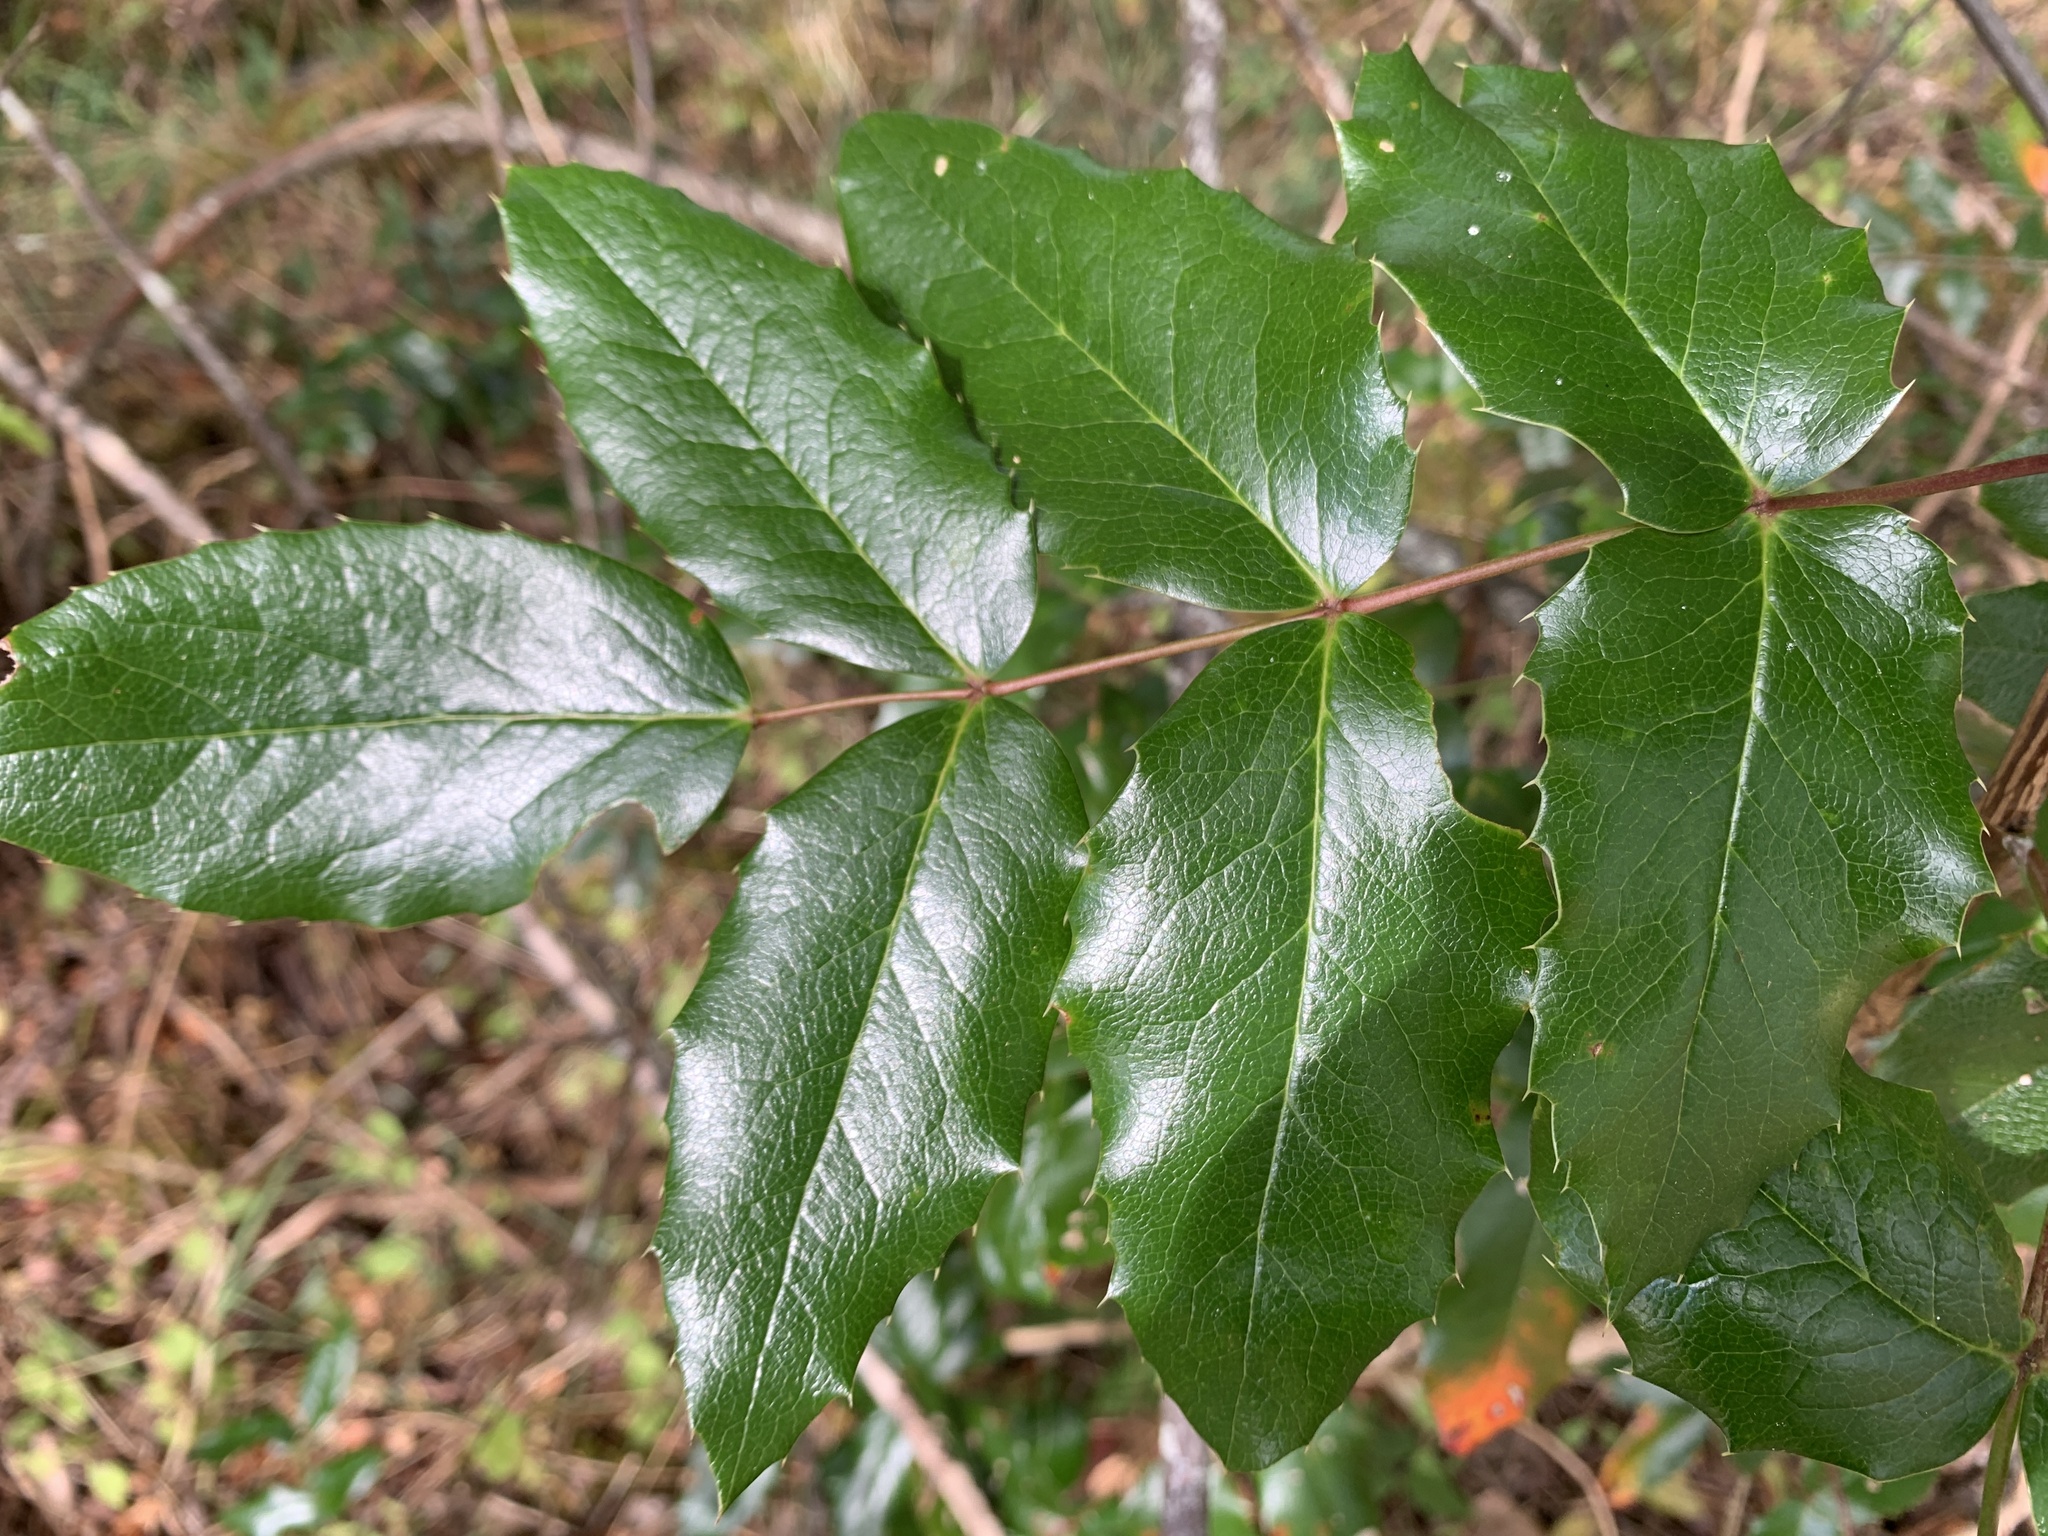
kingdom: Plantae
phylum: Tracheophyta
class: Magnoliopsida
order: Ranunculales
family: Berberidaceae
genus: Mahonia
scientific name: Mahonia aquifolium
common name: Oregon-grape
